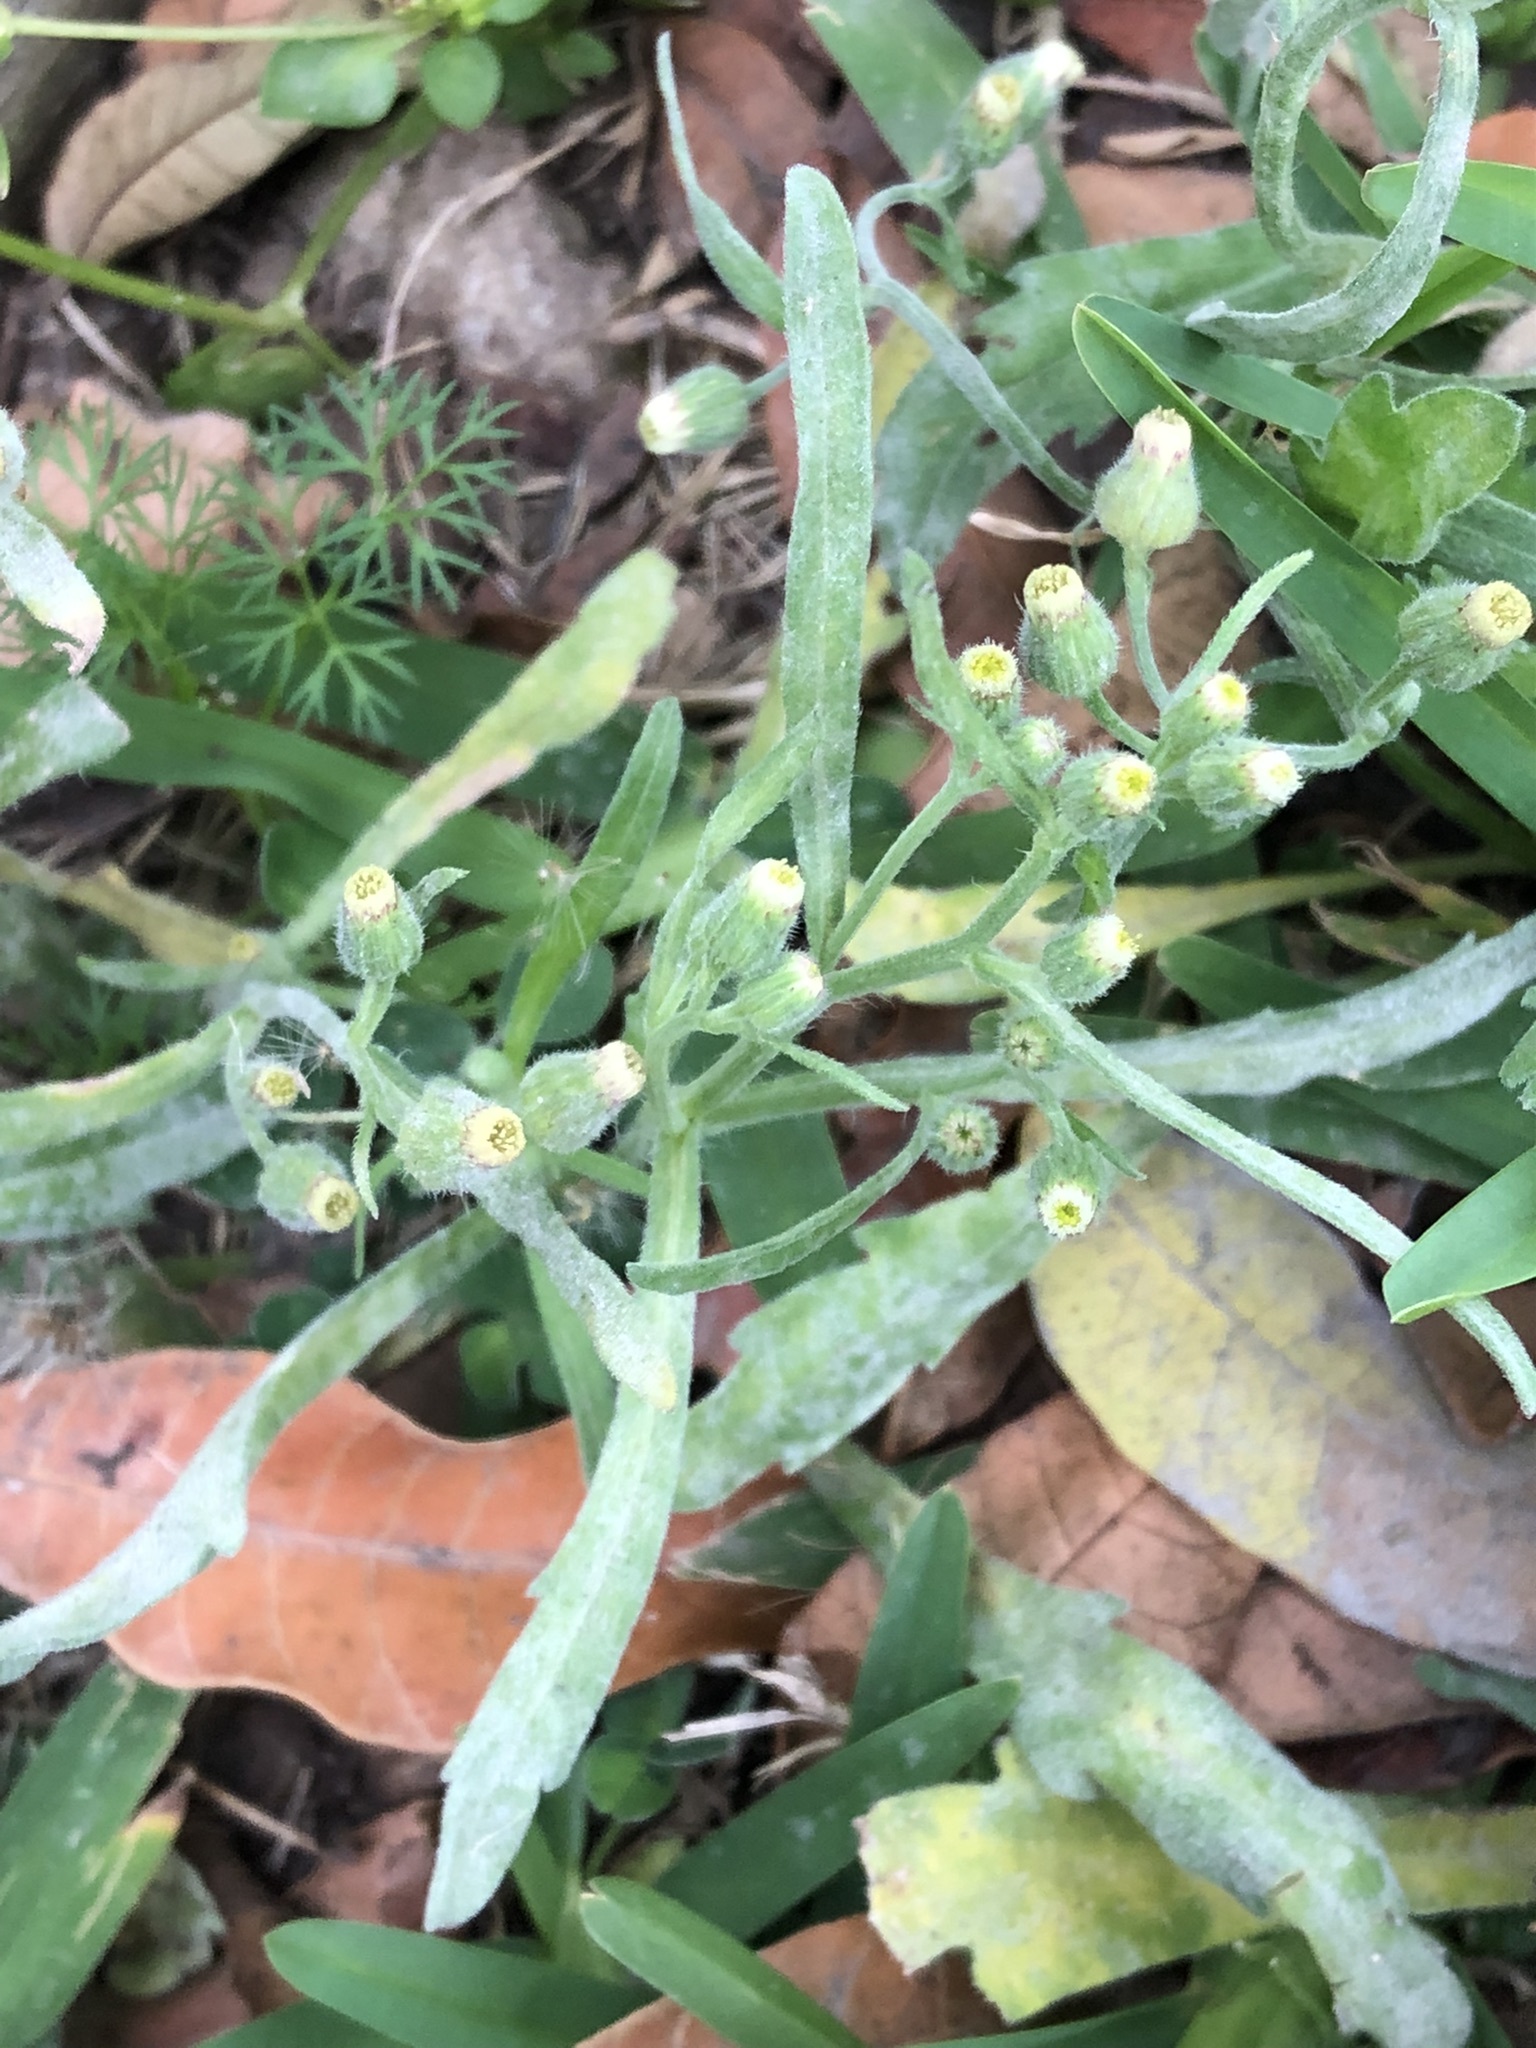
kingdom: Plantae
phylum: Tracheophyta
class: Magnoliopsida
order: Asterales
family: Asteraceae
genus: Erigeron
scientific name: Erigeron bonariensis
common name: Argentine fleabane
